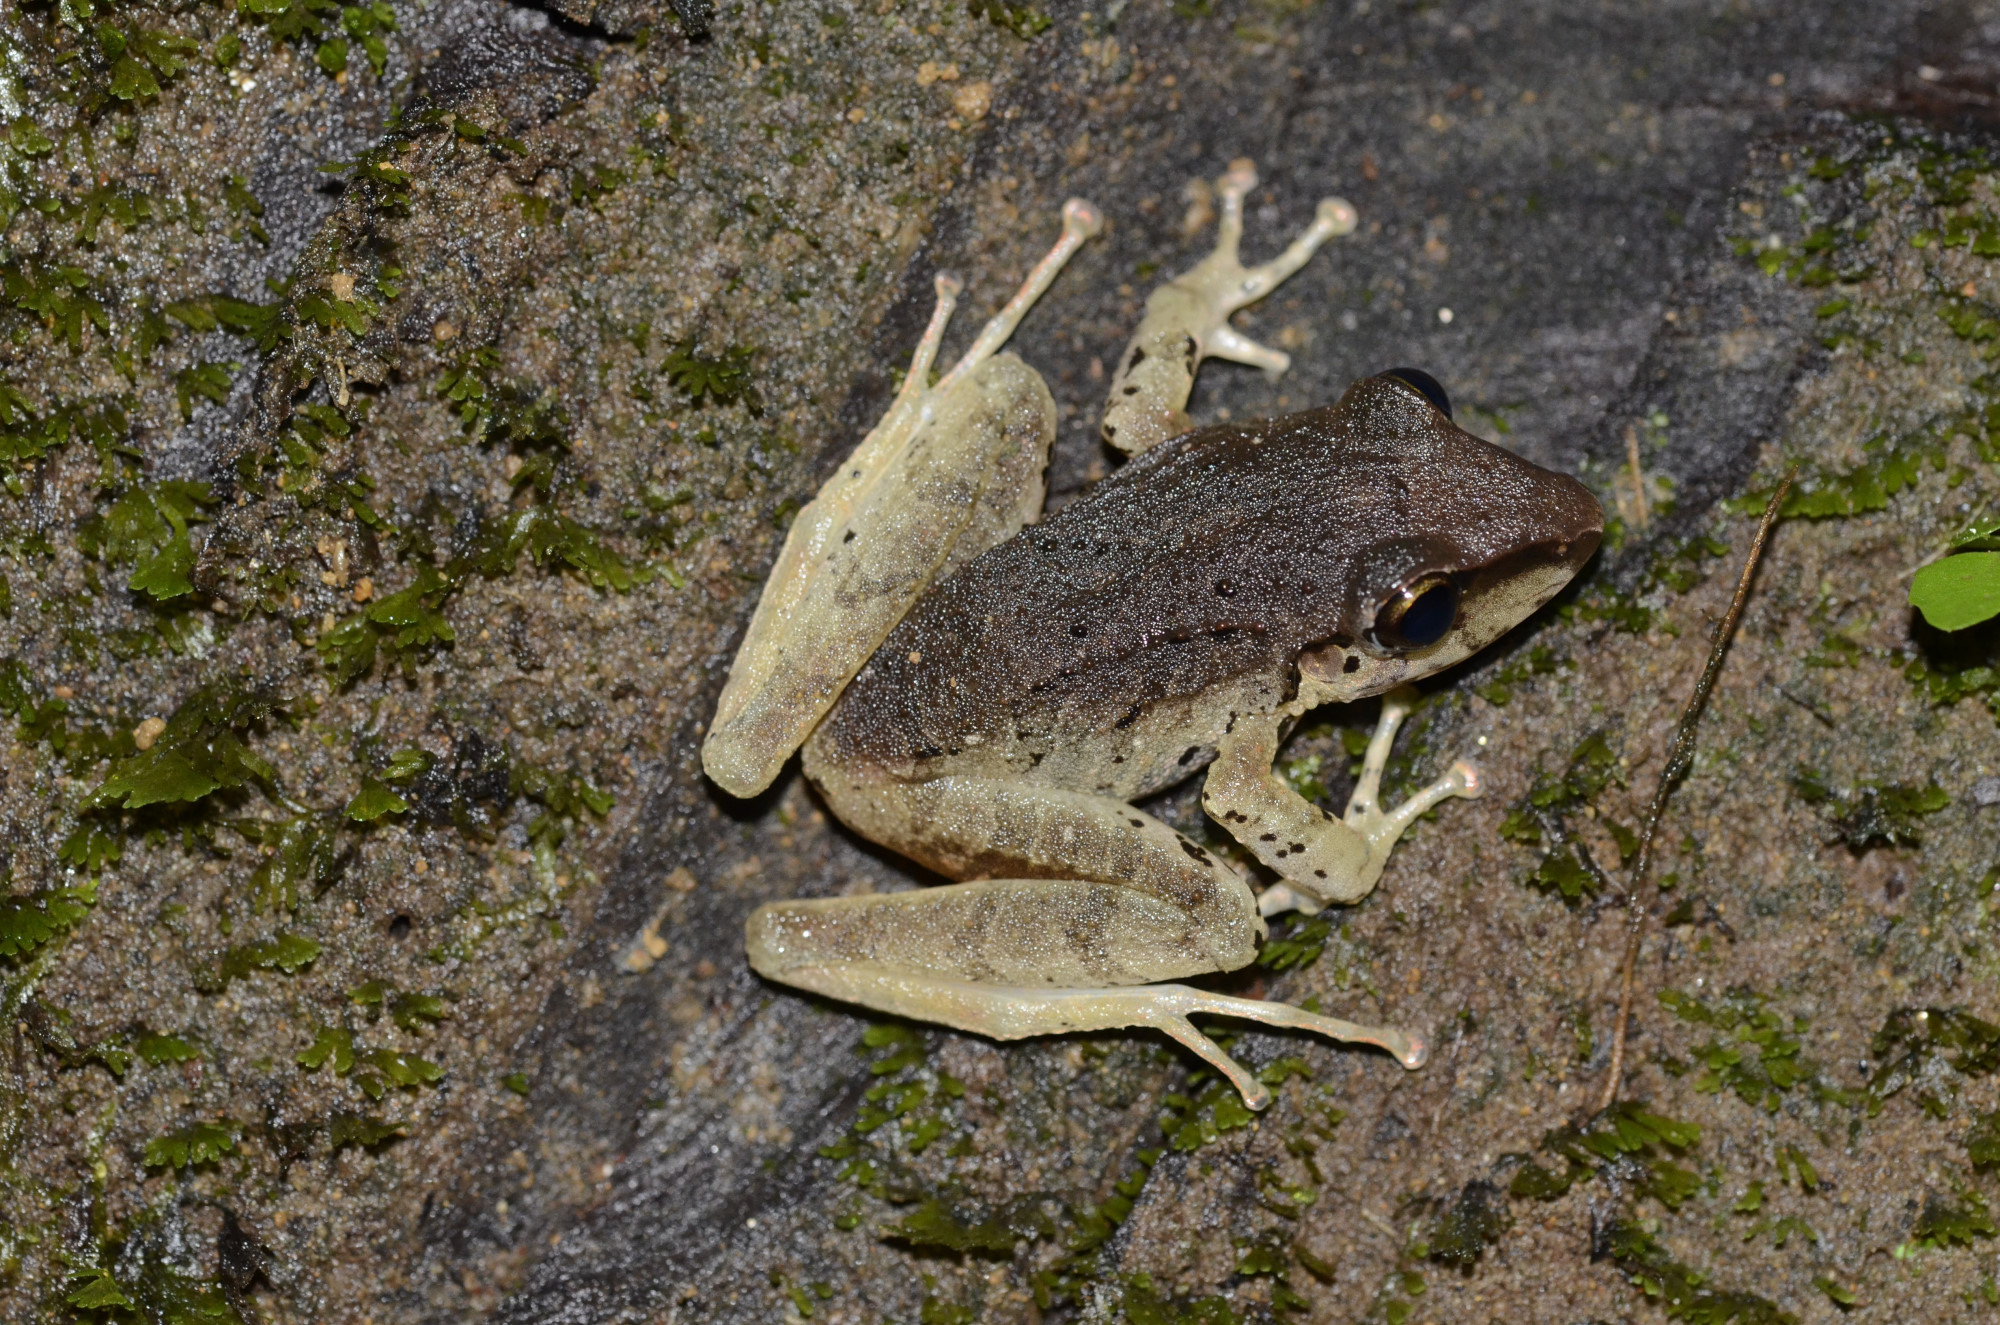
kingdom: Animalia
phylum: Chordata
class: Amphibia
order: Anura
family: Craugastoridae
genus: Pristimantis
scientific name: Pristimantis achatinus
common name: Cachabi robber frog
